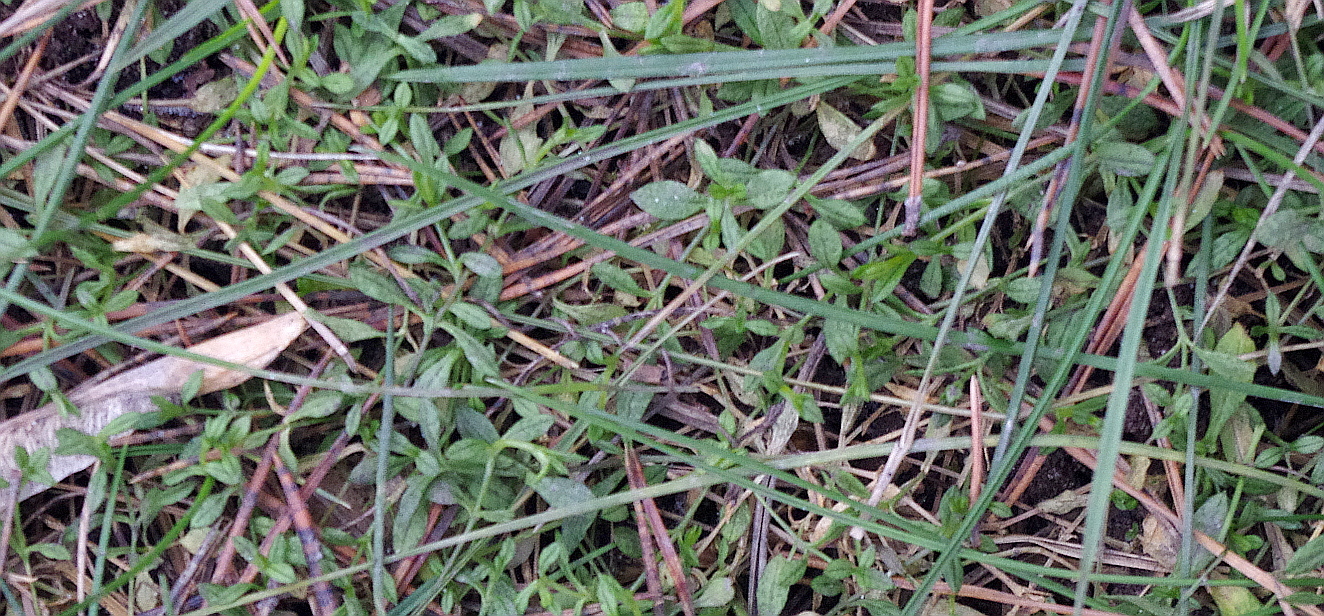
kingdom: Plantae
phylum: Tracheophyta
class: Magnoliopsida
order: Caryophyllales
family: Caryophyllaceae
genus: Stellaria
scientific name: Stellaria graminea
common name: Grass-like starwort
